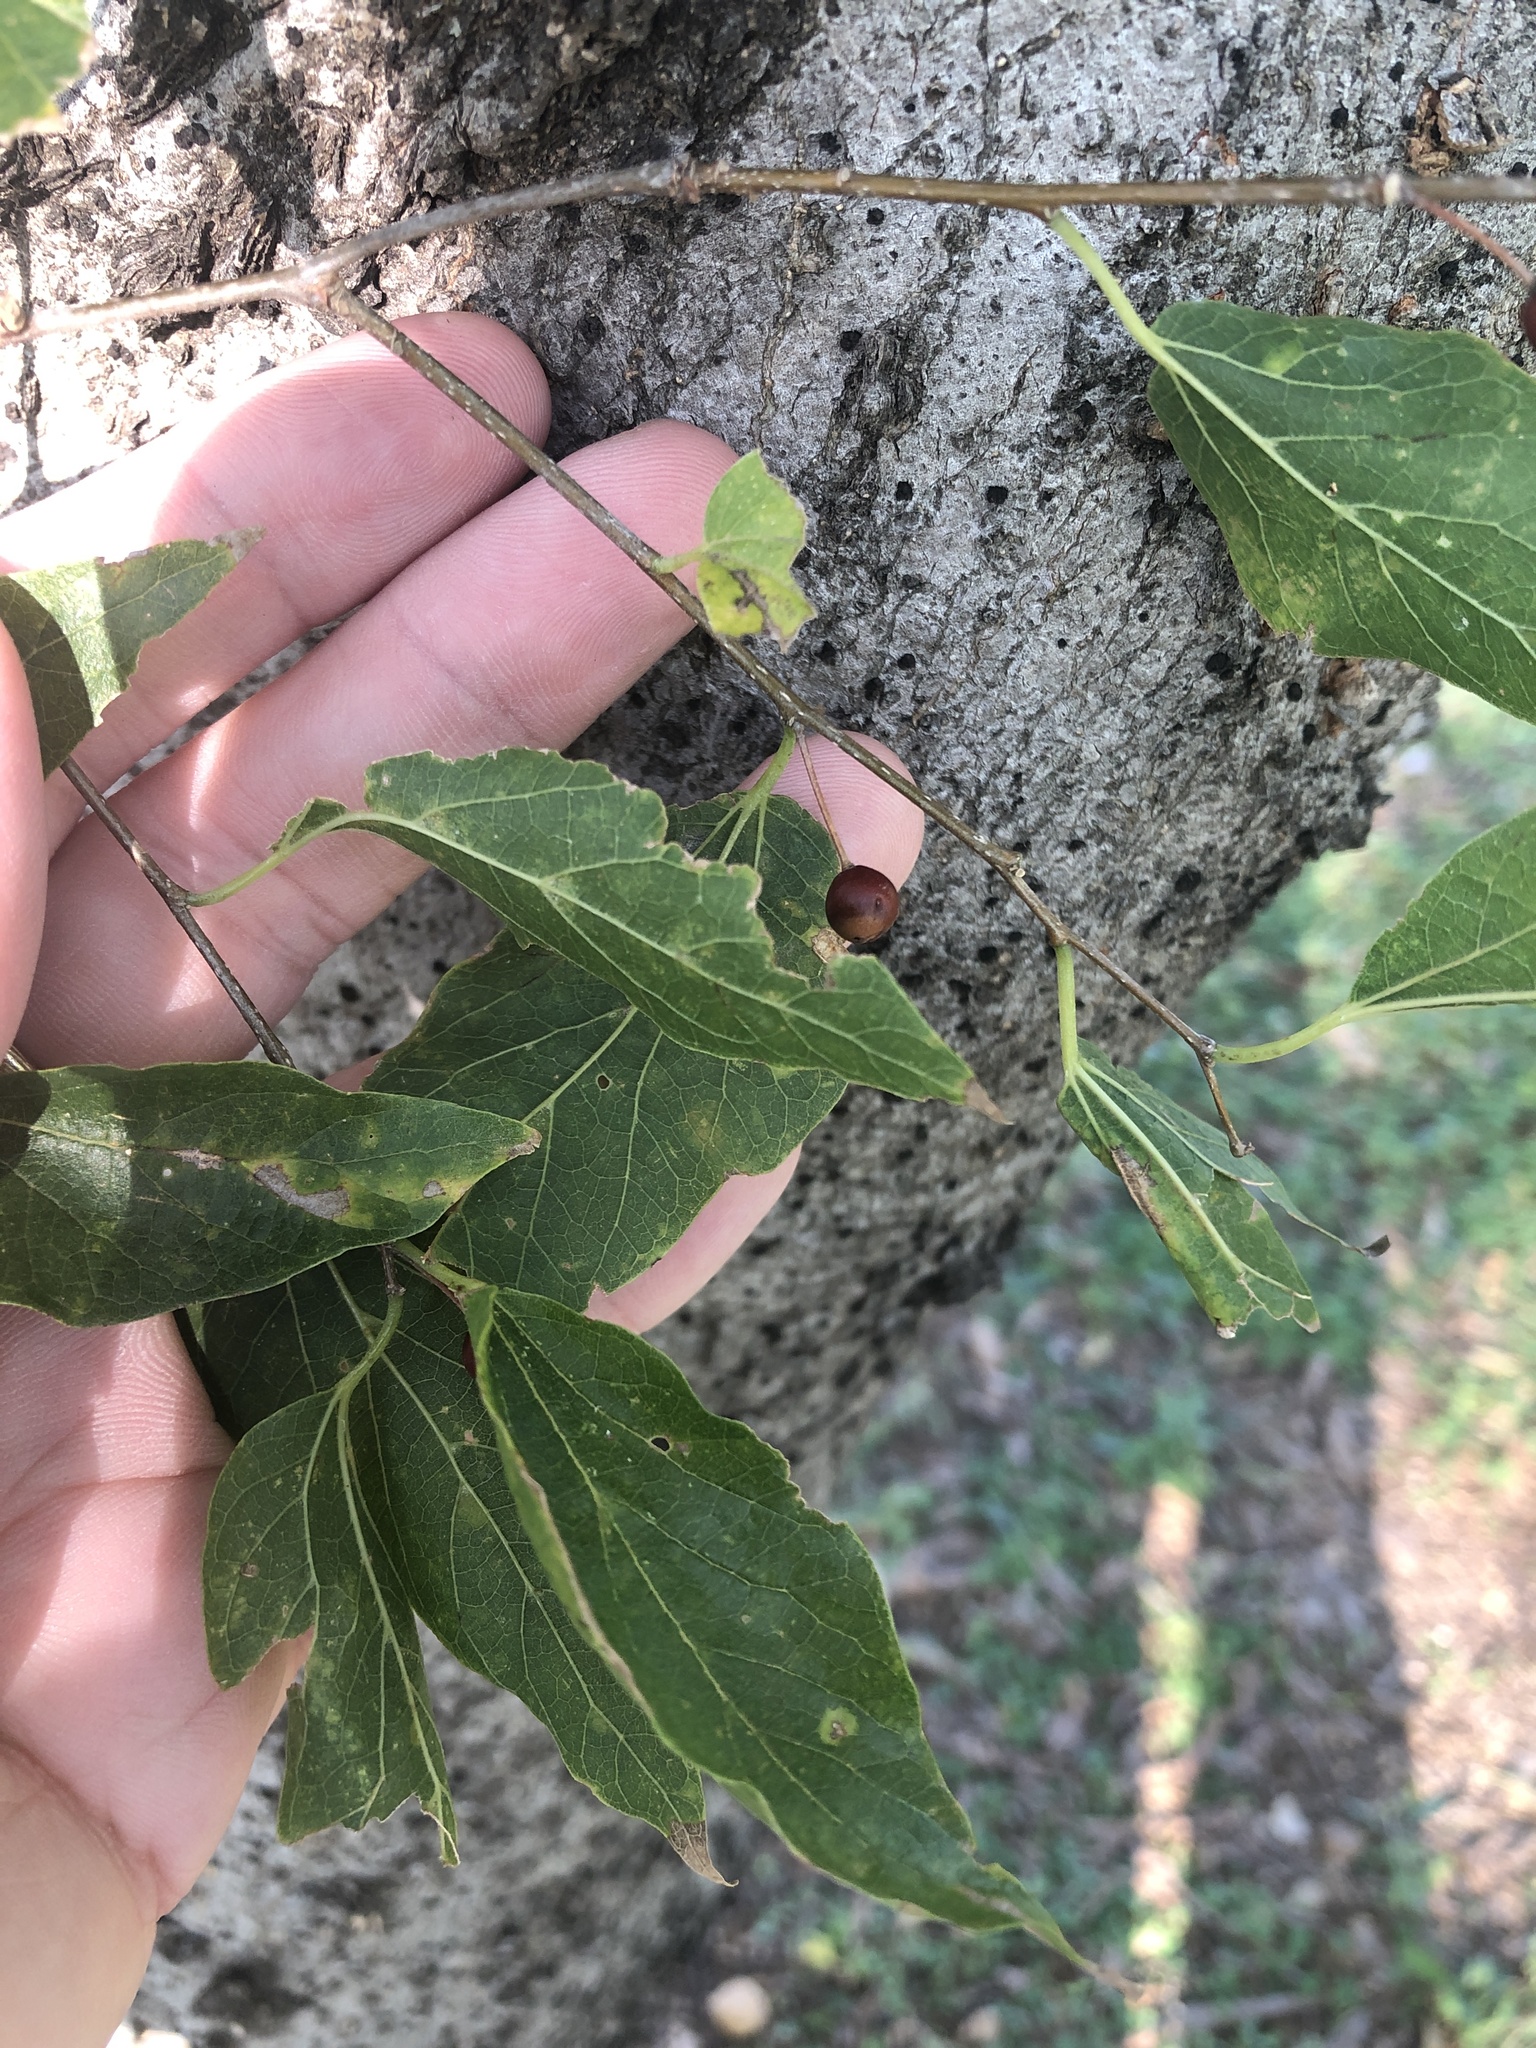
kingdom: Plantae
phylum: Tracheophyta
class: Magnoliopsida
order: Rosales
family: Cannabaceae
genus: Celtis
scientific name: Celtis laevigata
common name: Sugarberry
